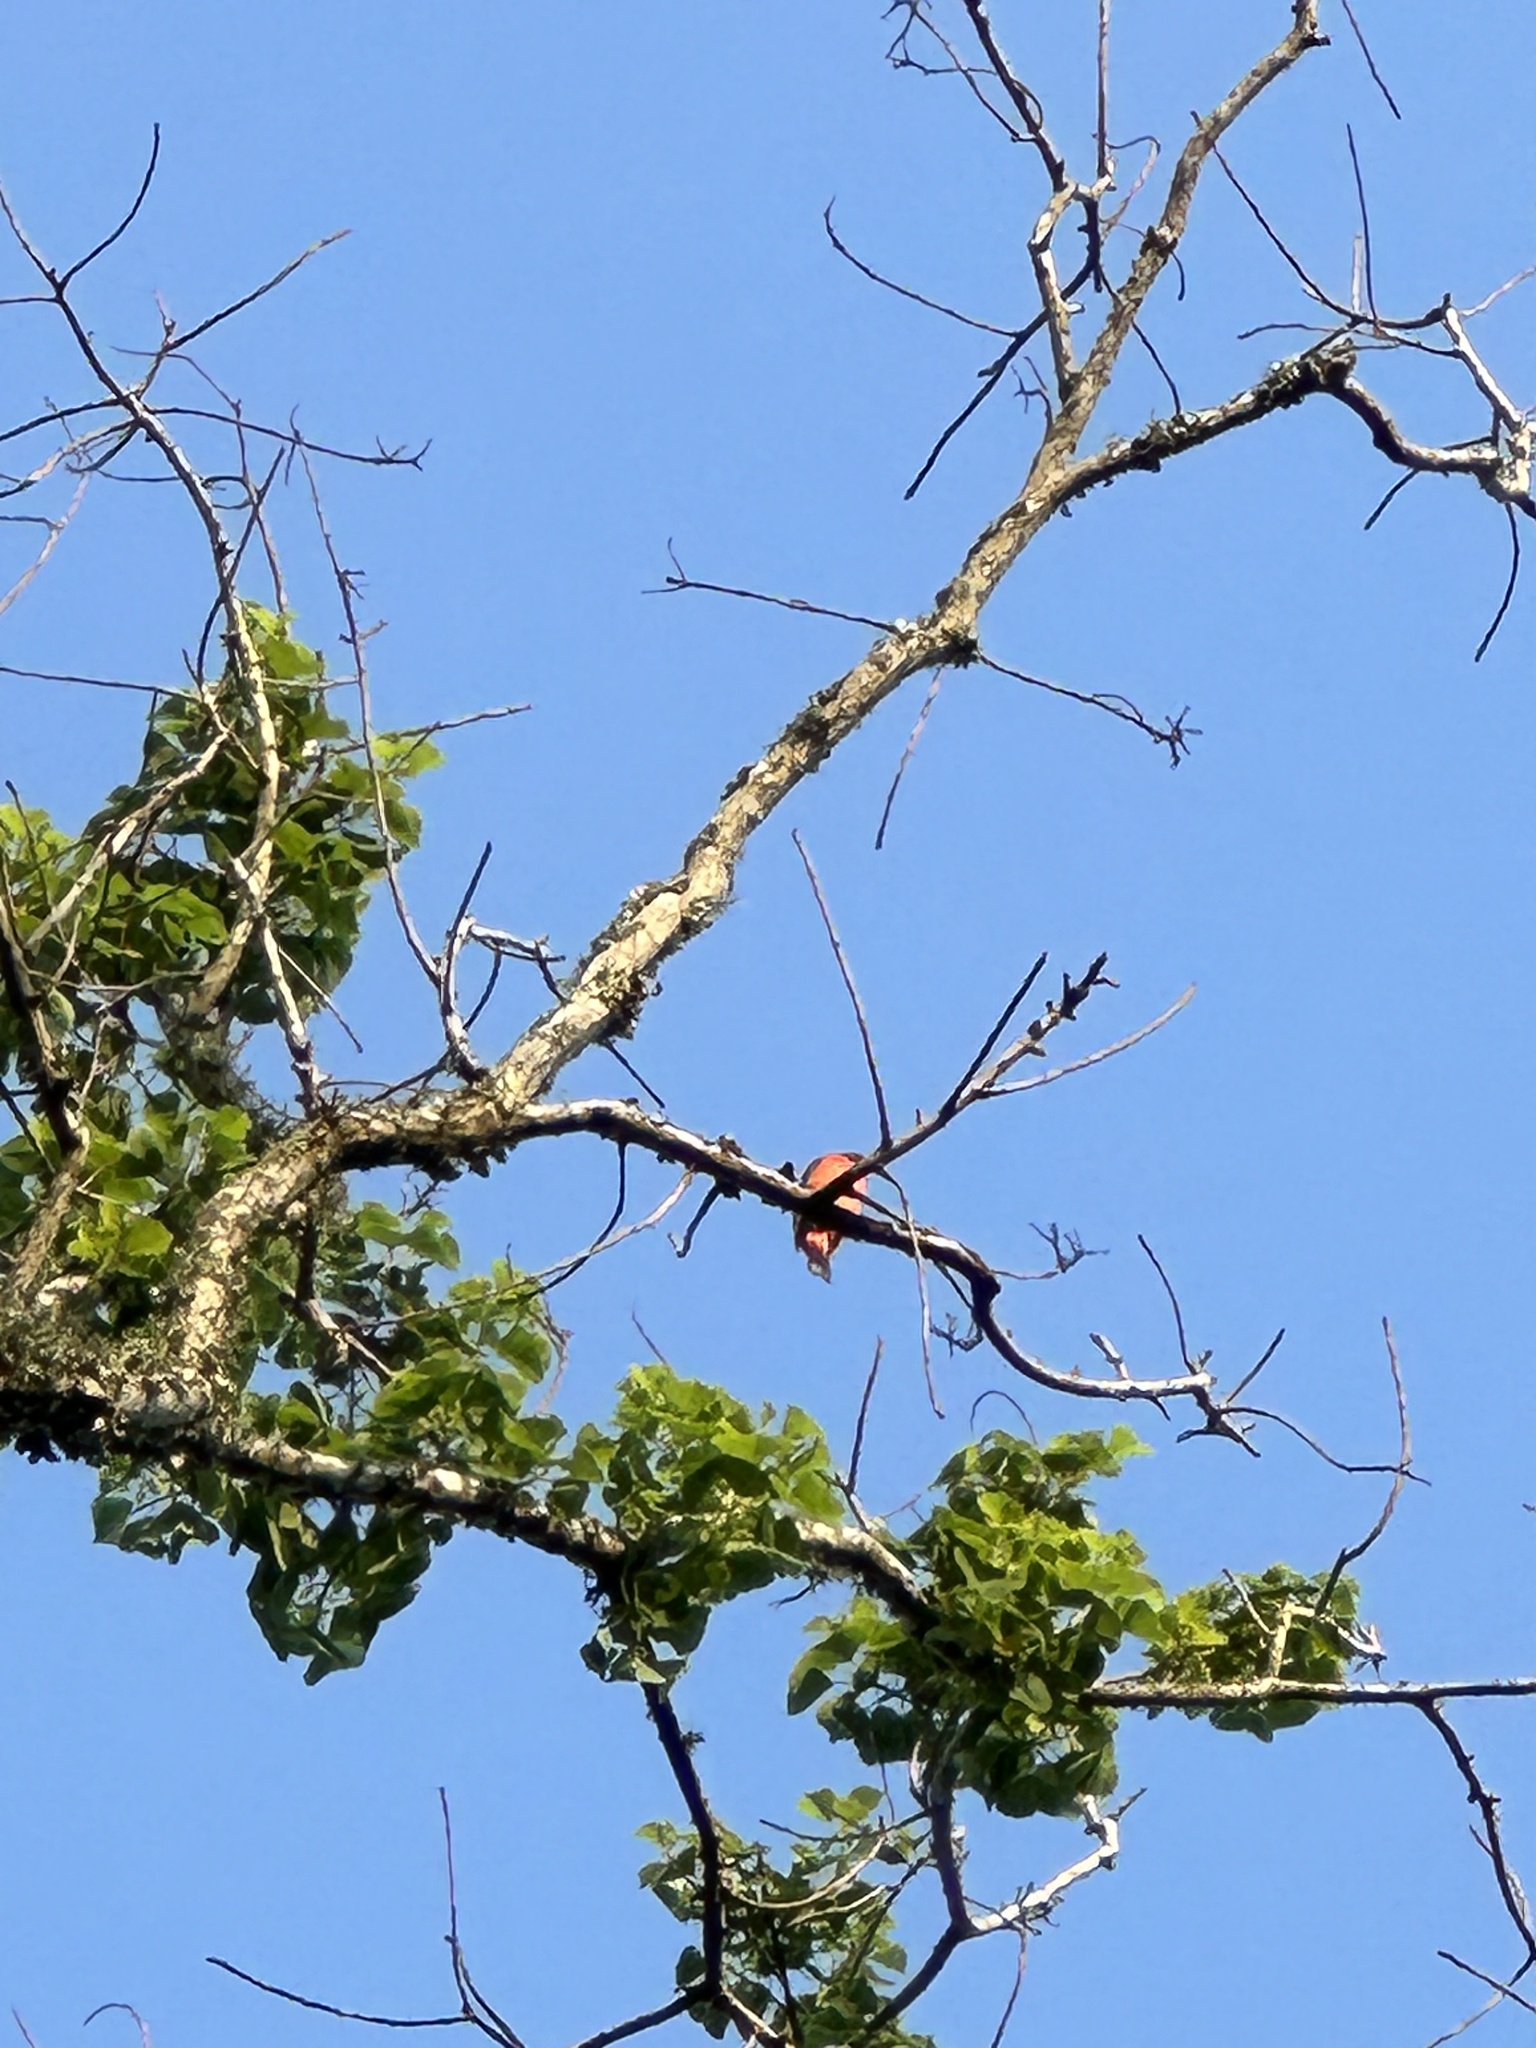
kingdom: Animalia
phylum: Chordata
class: Aves
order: Passeriformes
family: Cardinalidae
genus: Passerina
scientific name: Passerina ciris
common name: Painted bunting
